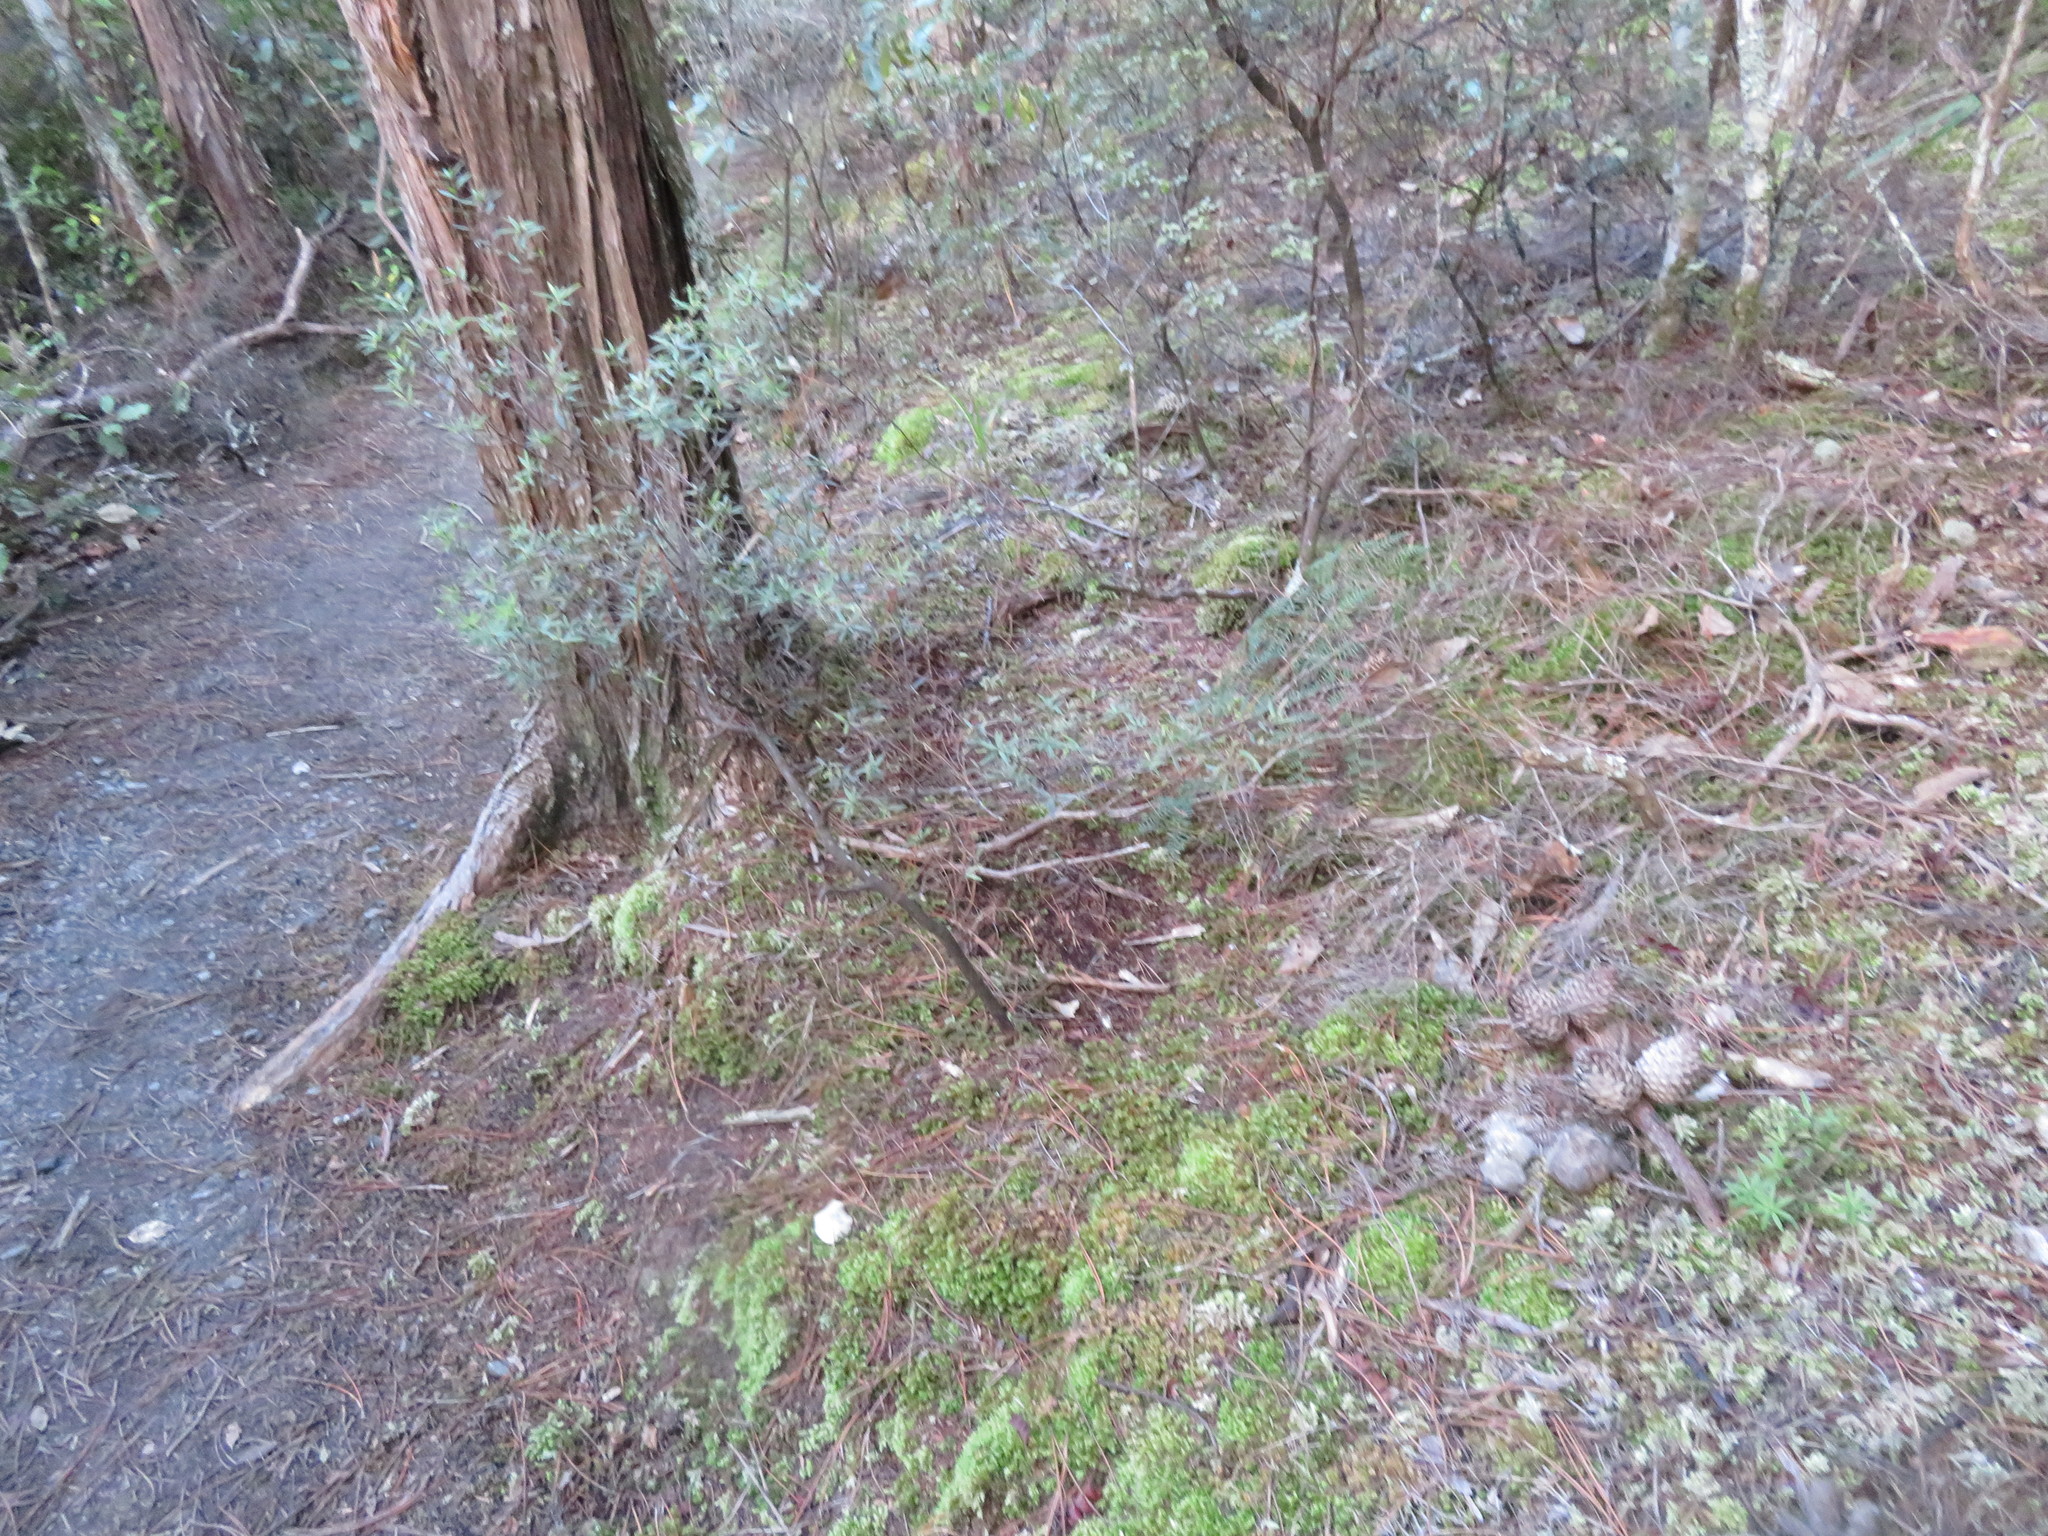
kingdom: Plantae
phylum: Tracheophyta
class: Magnoliopsida
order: Ericales
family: Ericaceae
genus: Leucopogon
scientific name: Leucopogon fasciculatus
